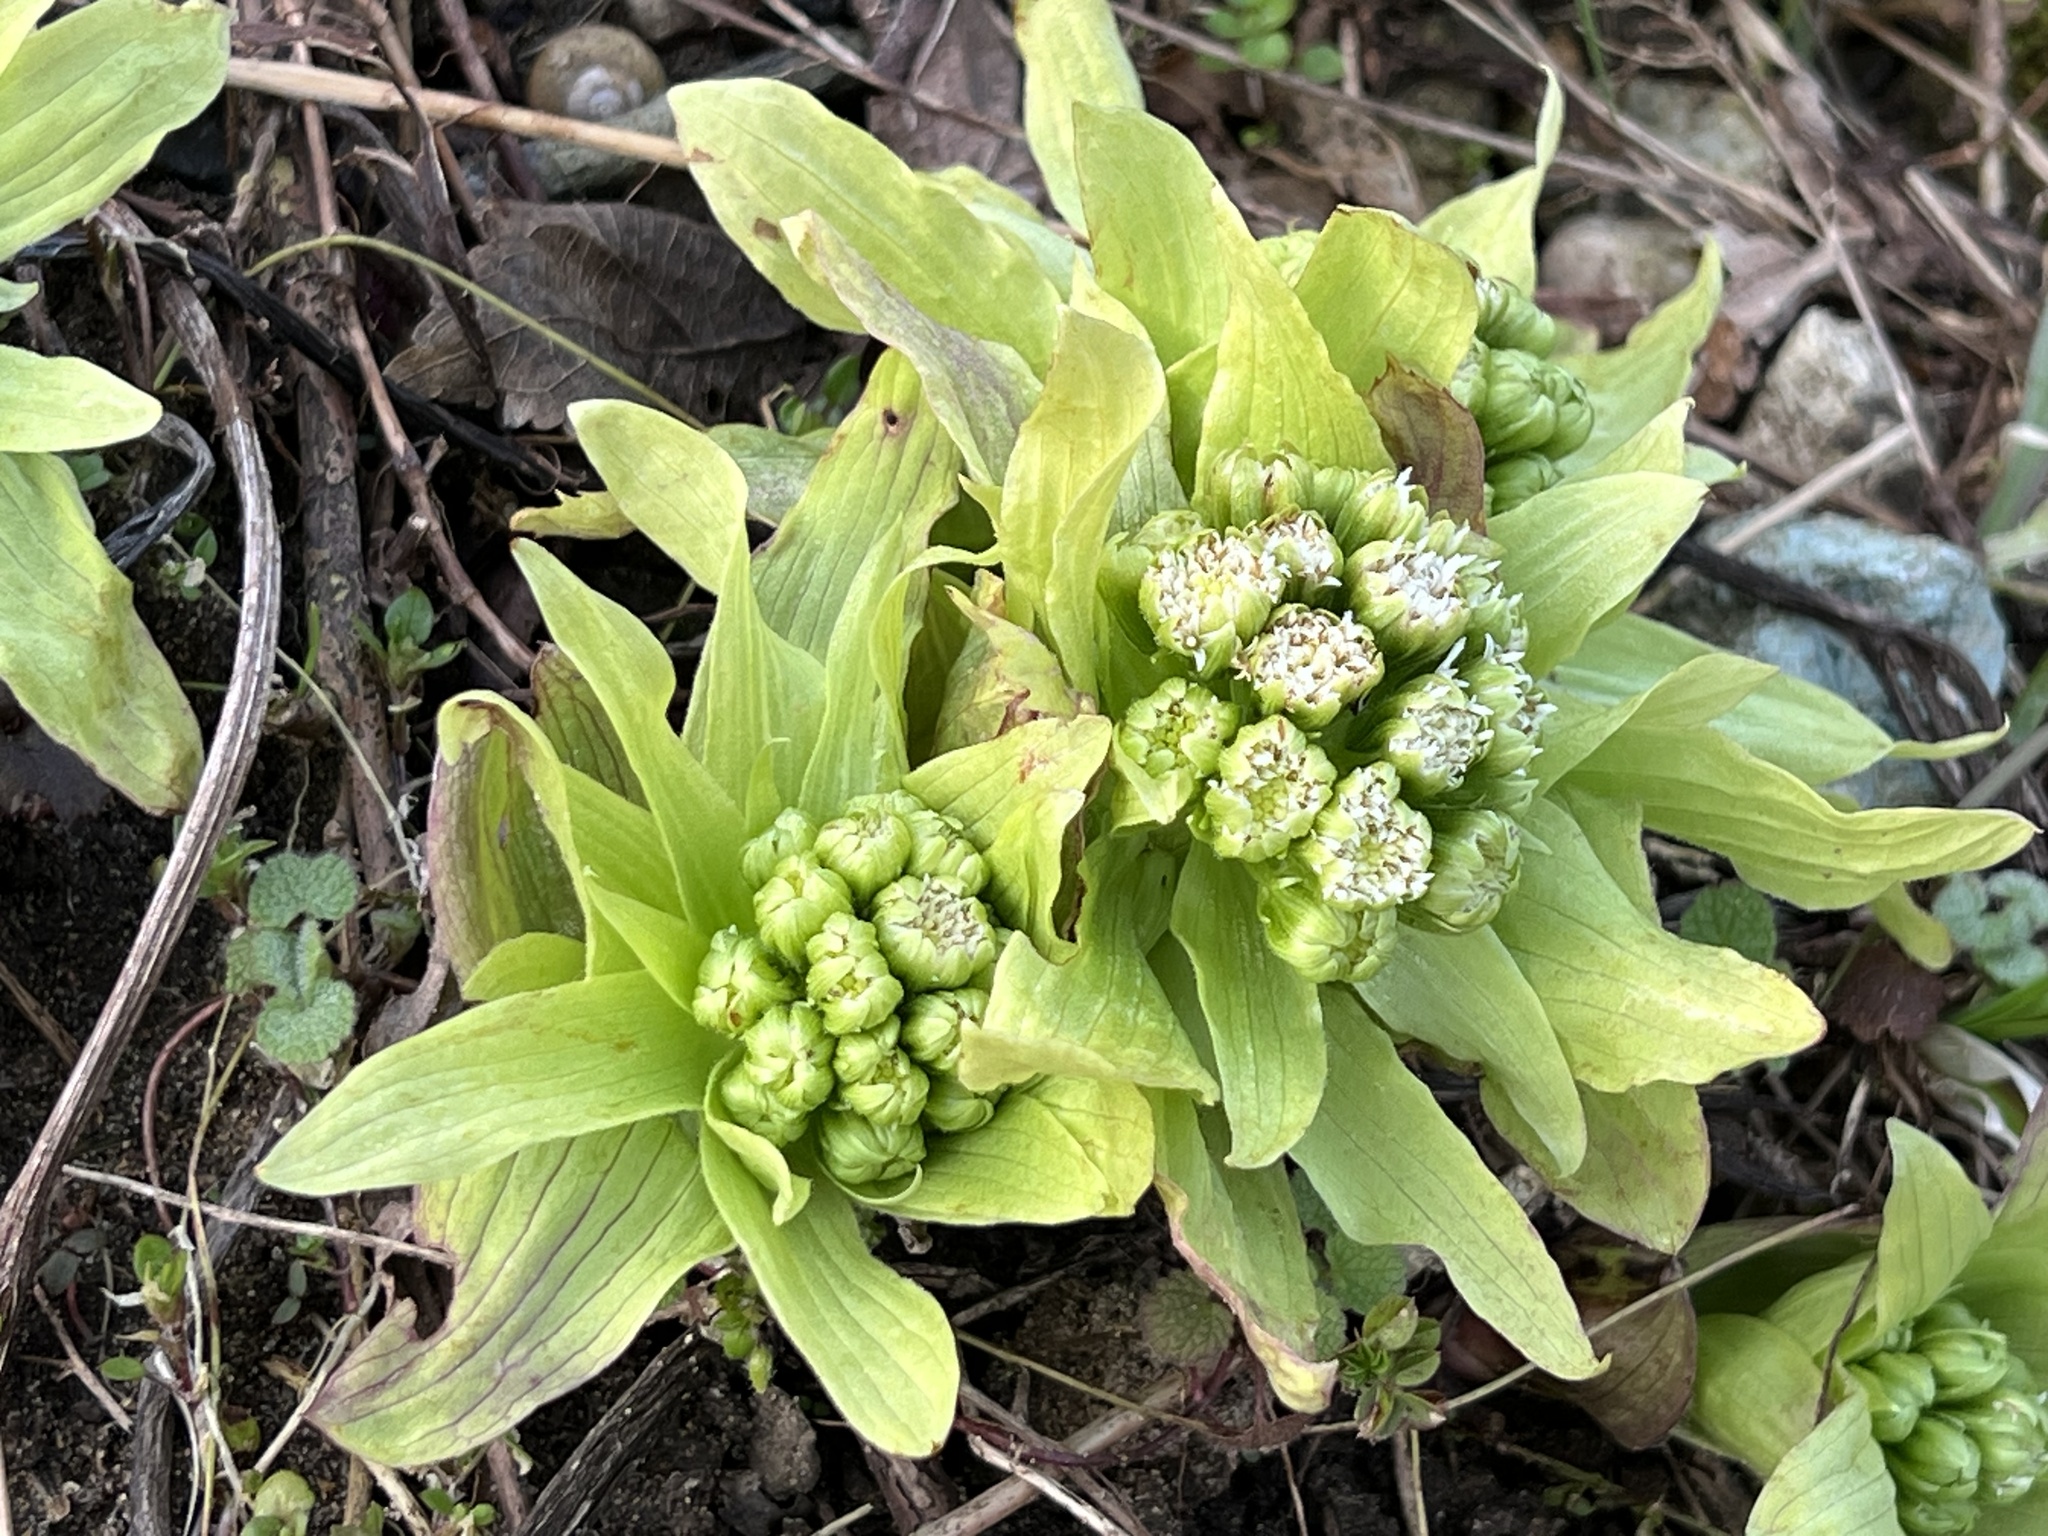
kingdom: Plantae
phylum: Tracheophyta
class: Magnoliopsida
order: Asterales
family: Asteraceae
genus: Petasites
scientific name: Petasites japonicus
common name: Giant butterbur
